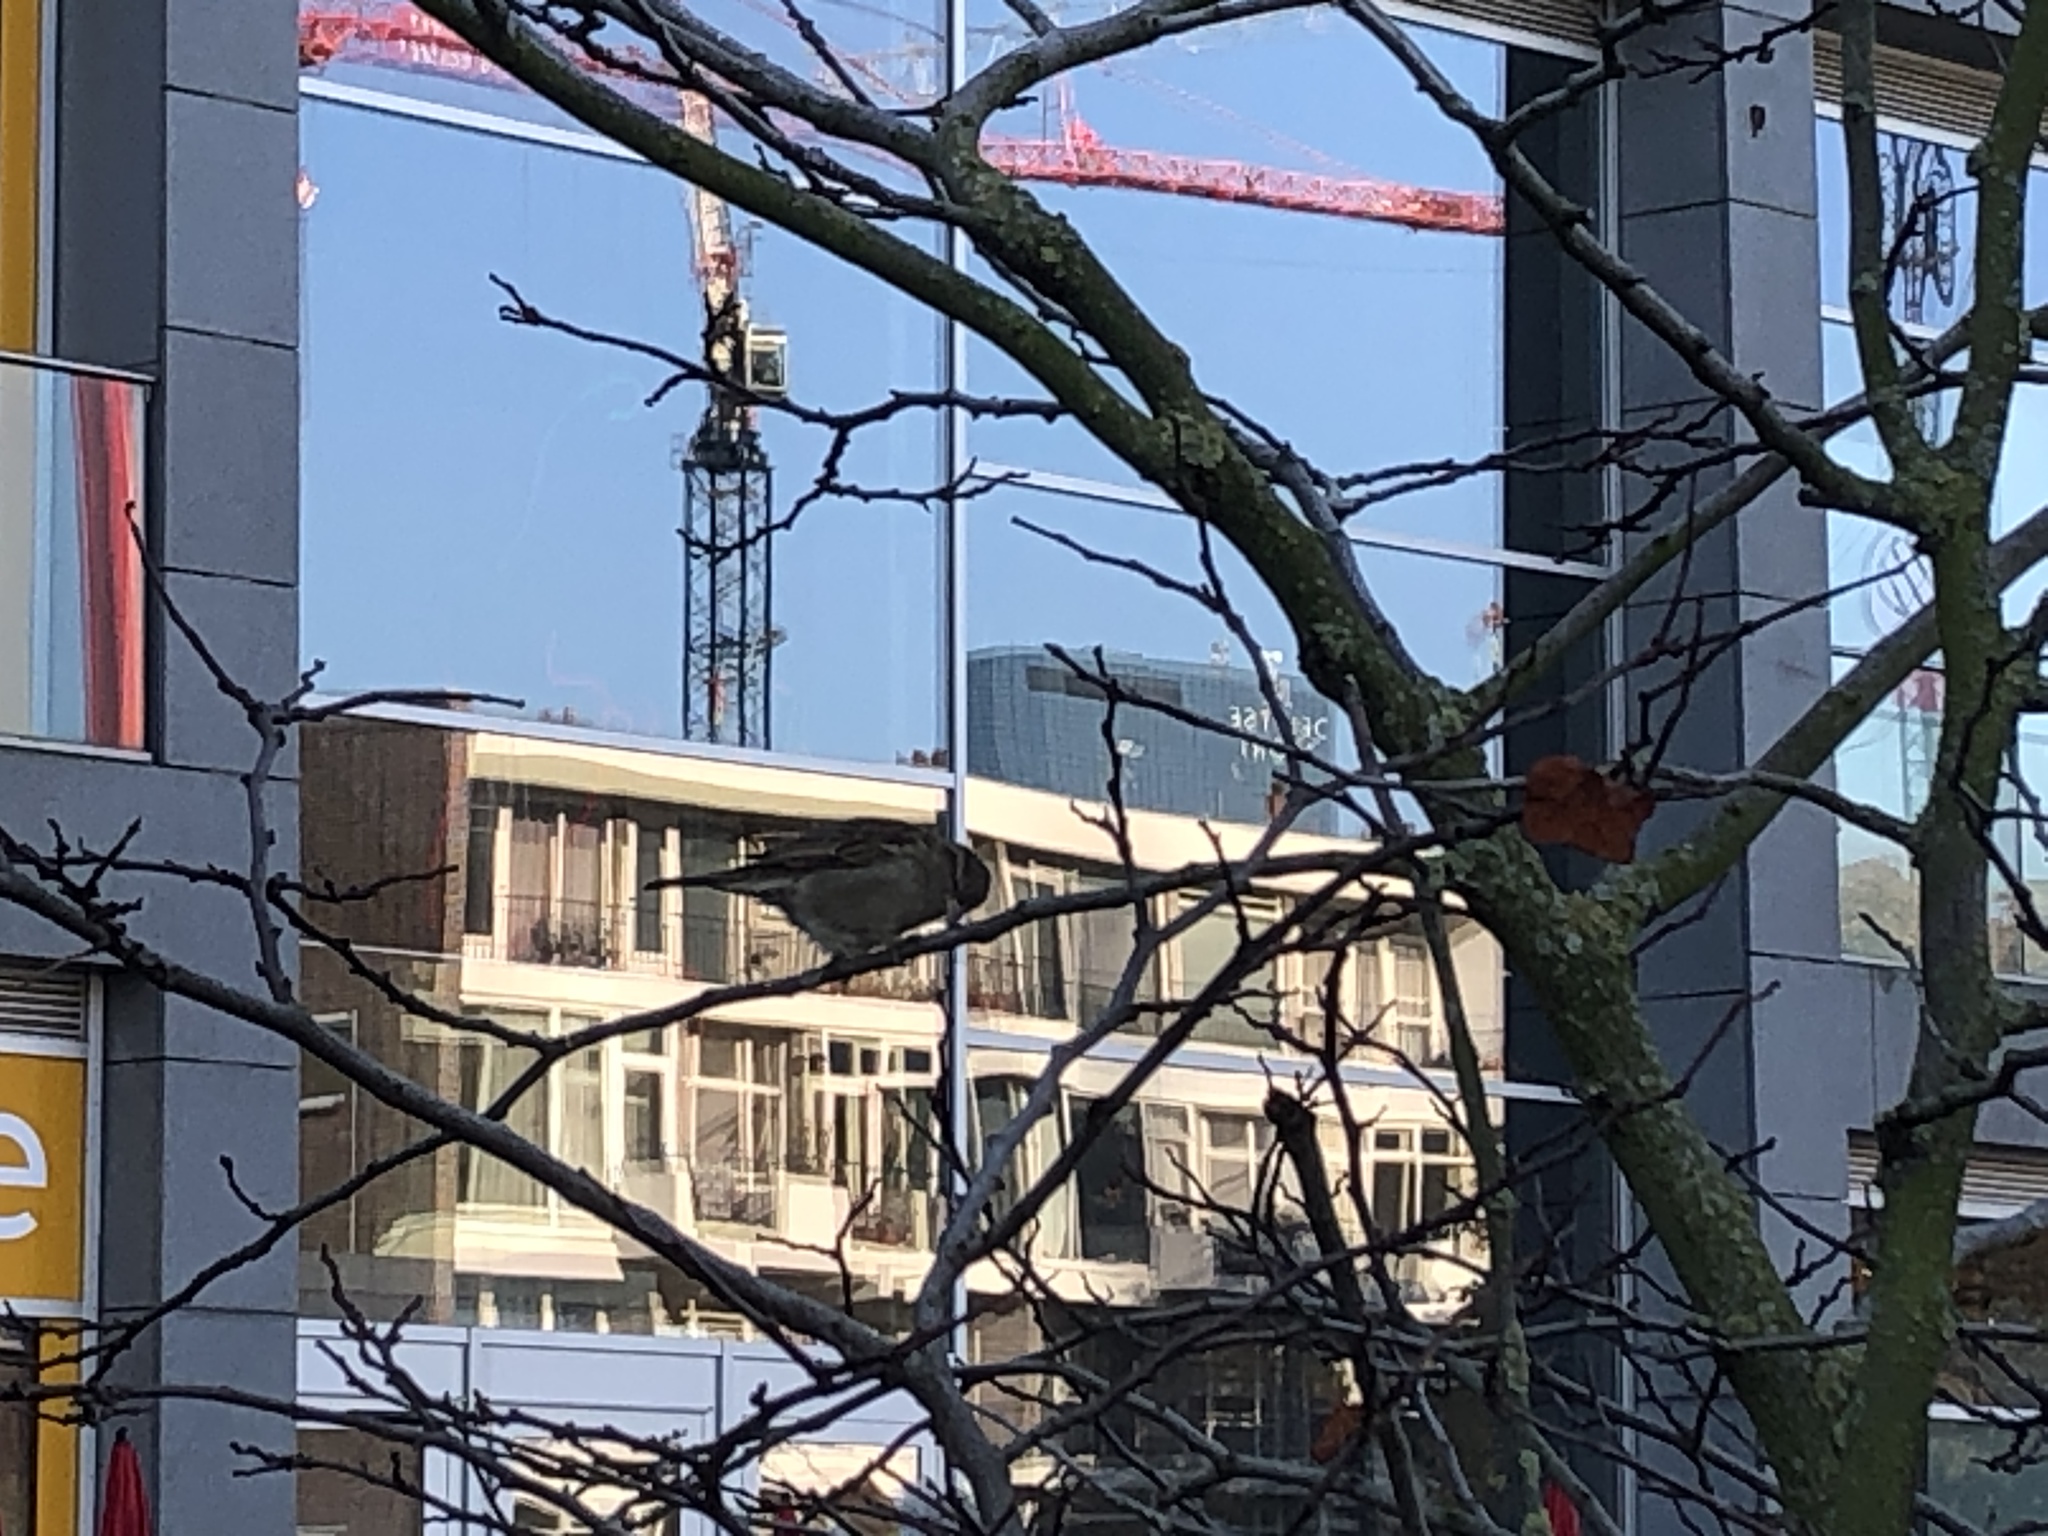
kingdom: Animalia
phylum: Chordata
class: Aves
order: Passeriformes
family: Passeridae
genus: Passer
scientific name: Passer domesticus
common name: House sparrow
